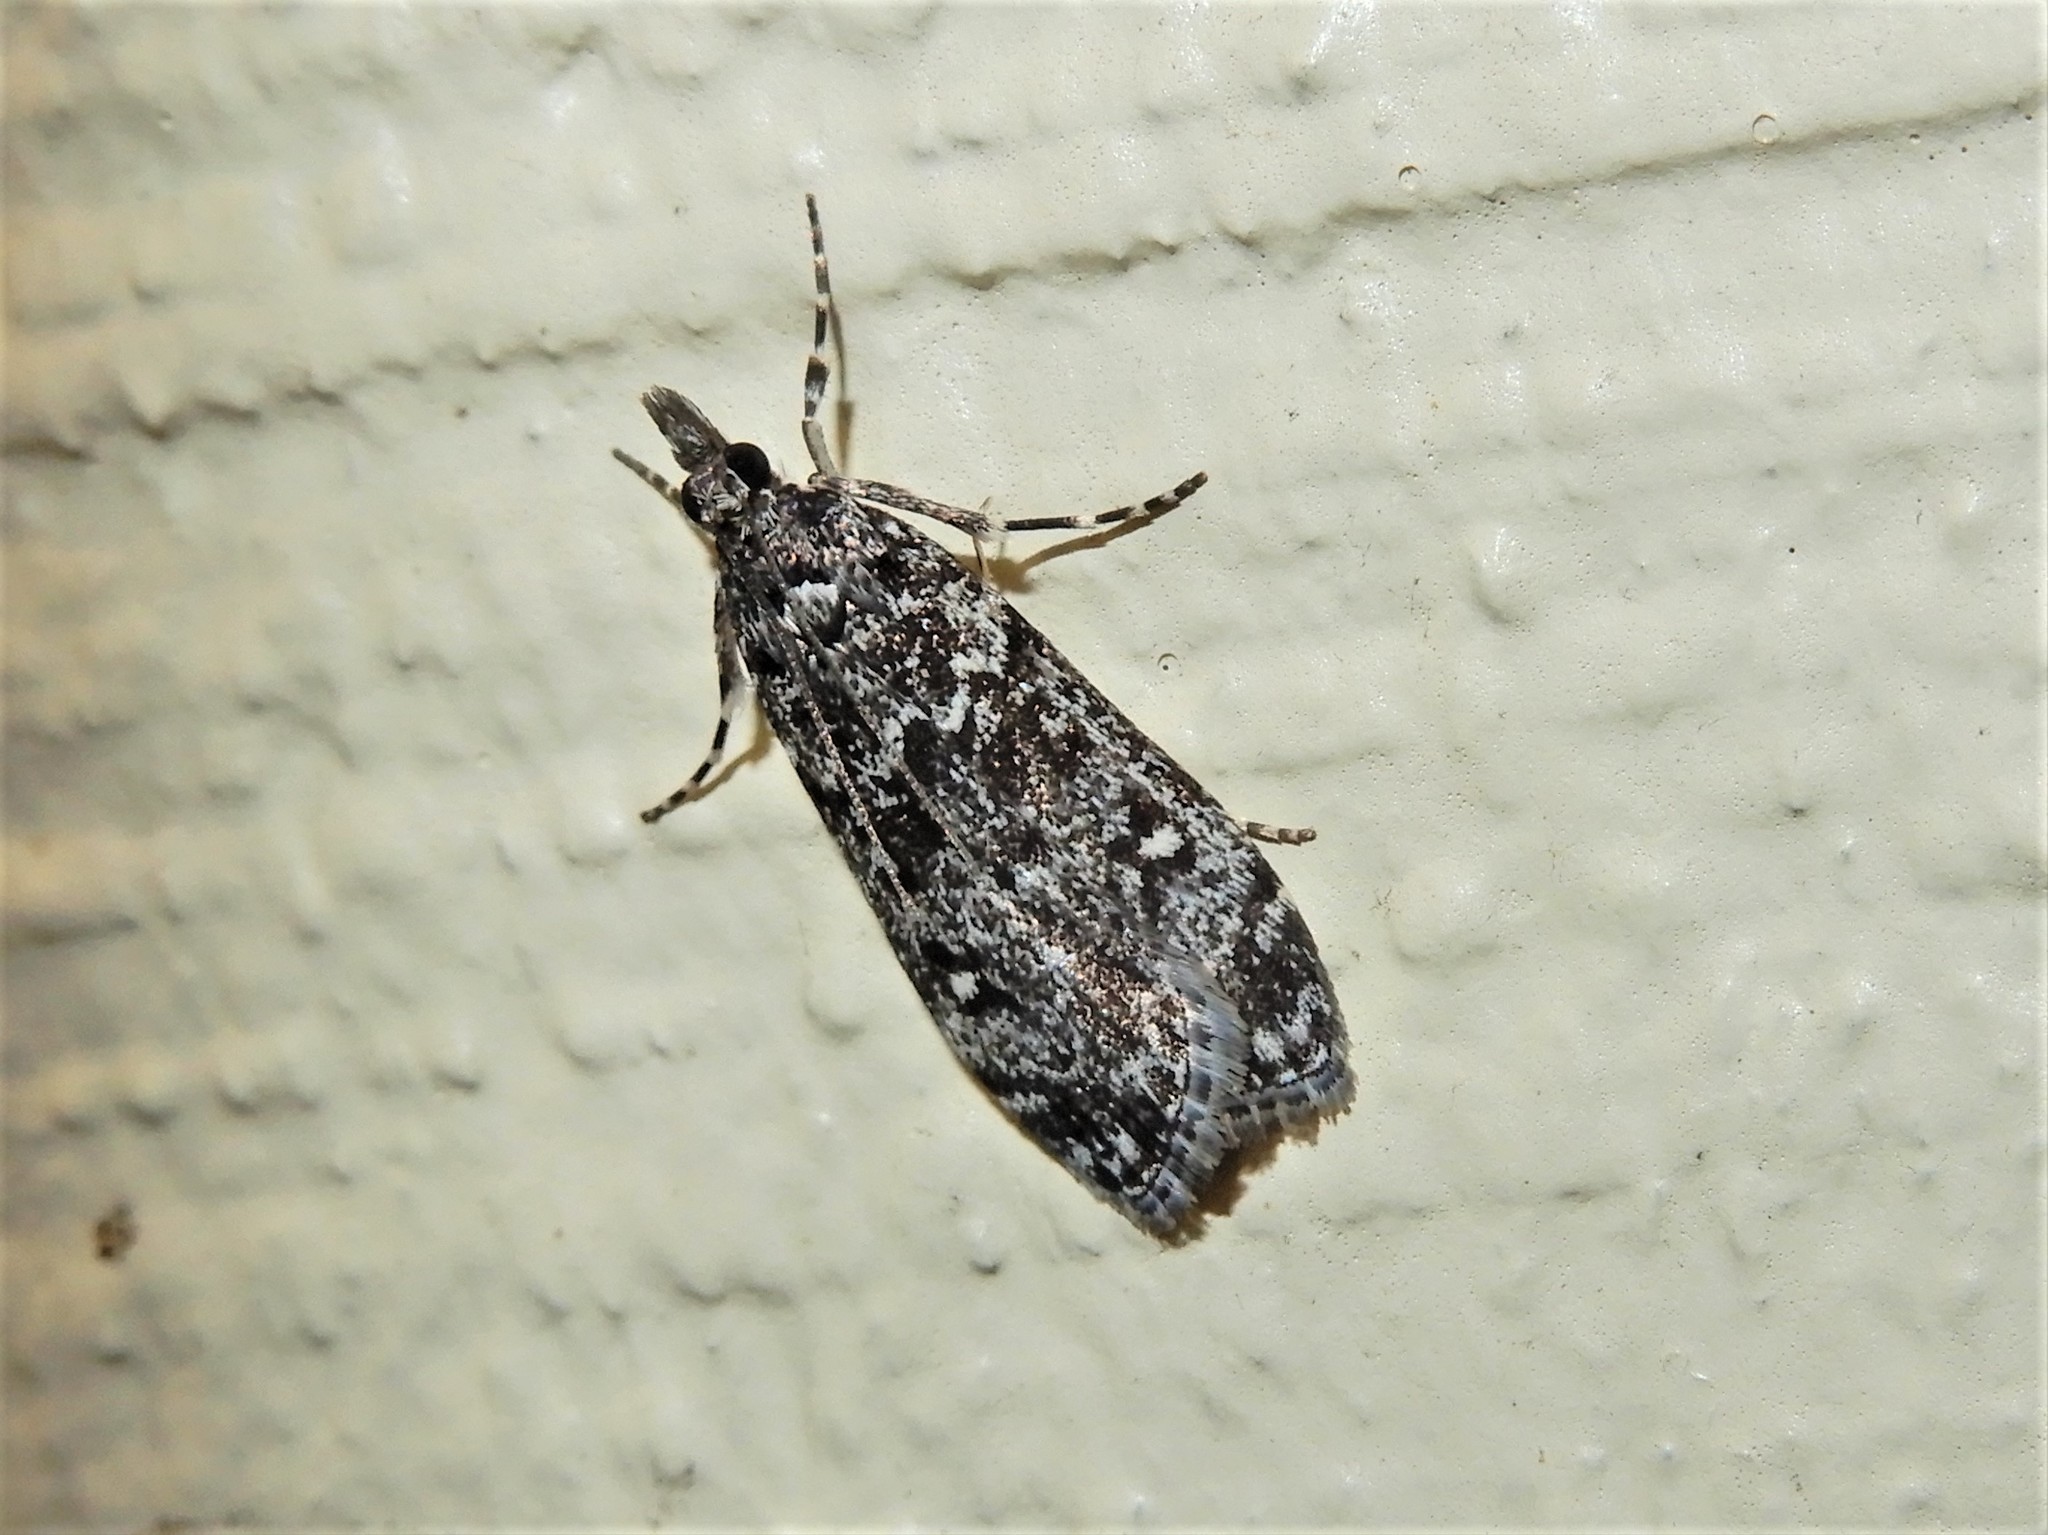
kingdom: Animalia
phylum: Arthropoda
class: Insecta
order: Lepidoptera
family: Crambidae
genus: Eudonia
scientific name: Eudonia philerga
